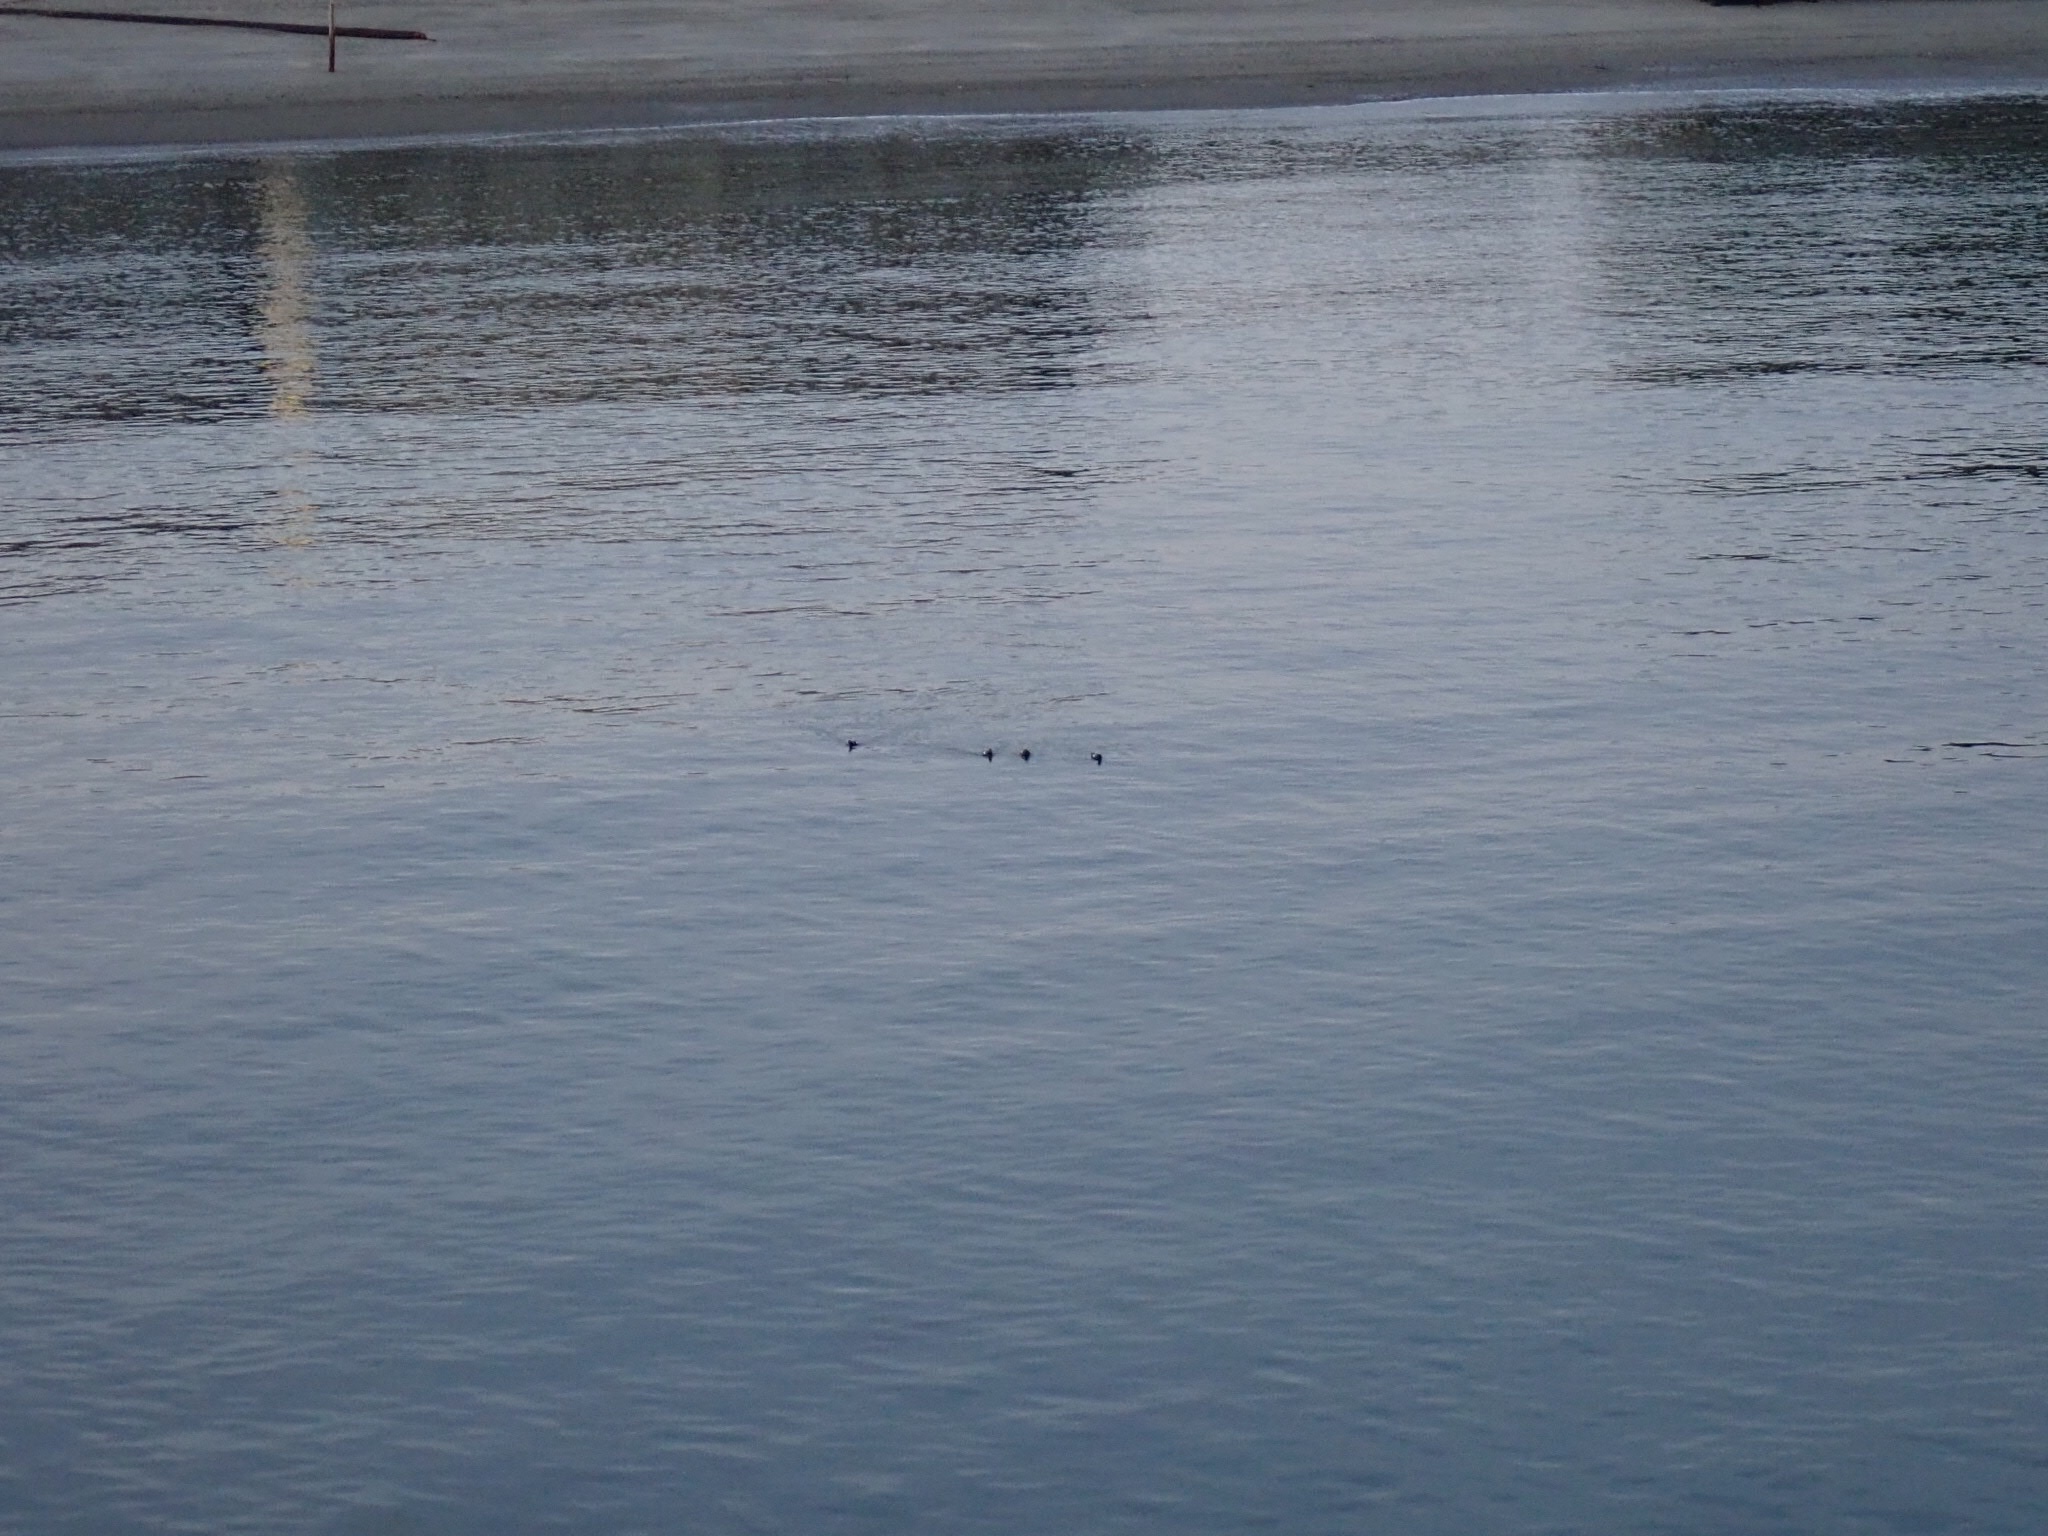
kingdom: Animalia
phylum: Chordata
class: Aves
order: Charadriiformes
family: Alcidae
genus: Cepphus
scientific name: Cepphus columba
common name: Pigeon guillemot
